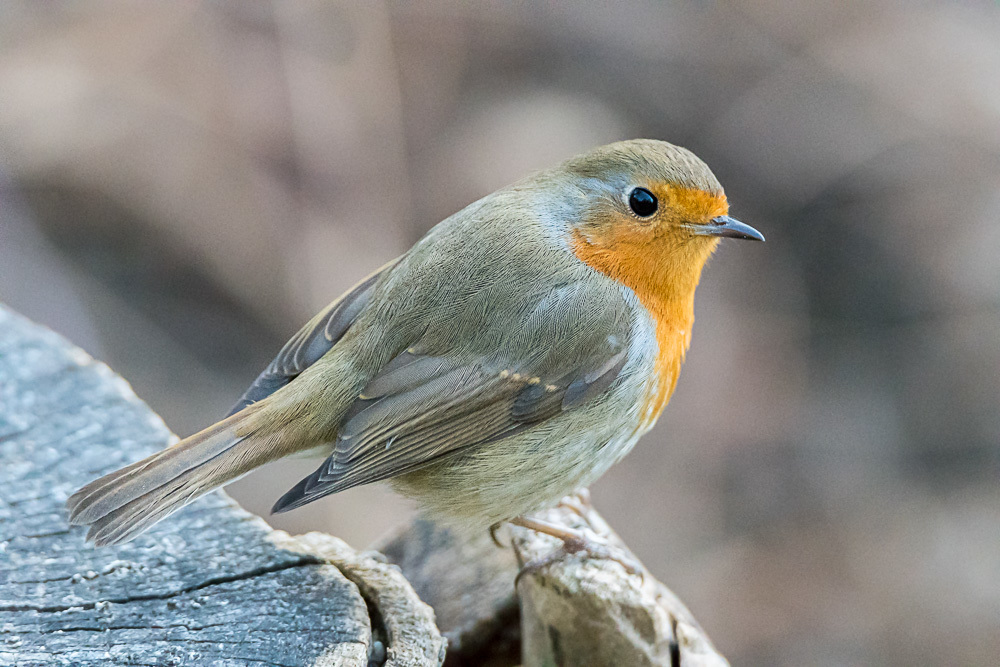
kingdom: Animalia
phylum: Chordata
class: Aves
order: Passeriformes
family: Muscicapidae
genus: Erithacus
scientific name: Erithacus rubecula
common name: European robin
